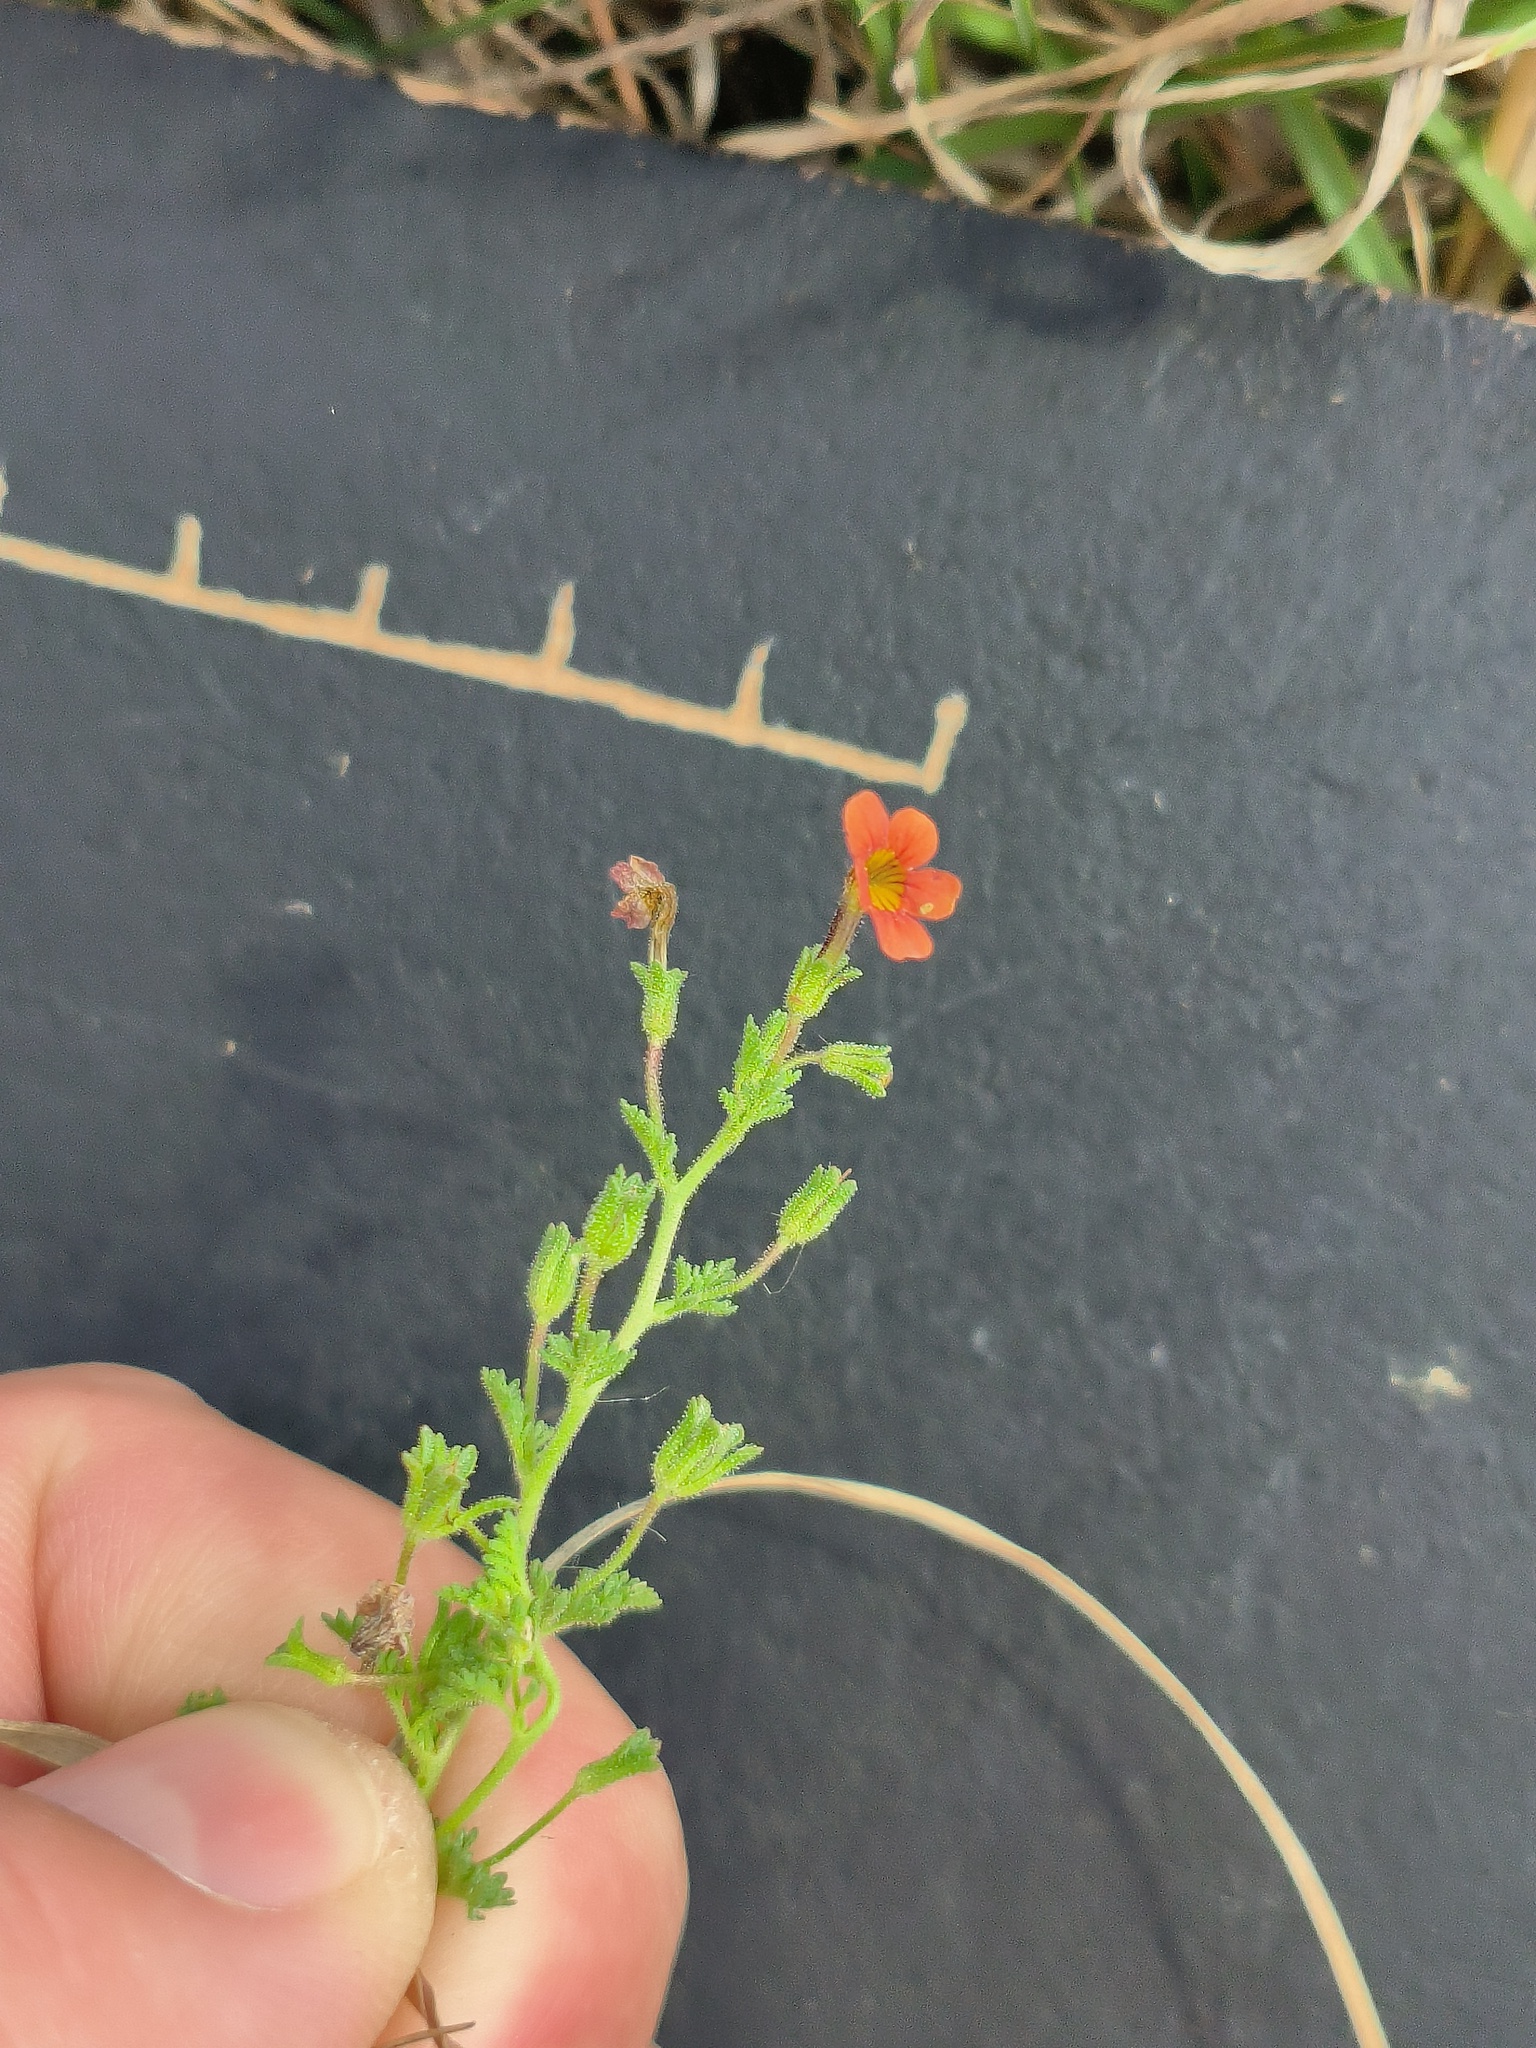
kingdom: Plantae
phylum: Tracheophyta
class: Magnoliopsida
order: Lamiales
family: Scrophulariaceae
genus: Jamesbrittenia
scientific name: Jamesbrittenia aurantiaca
